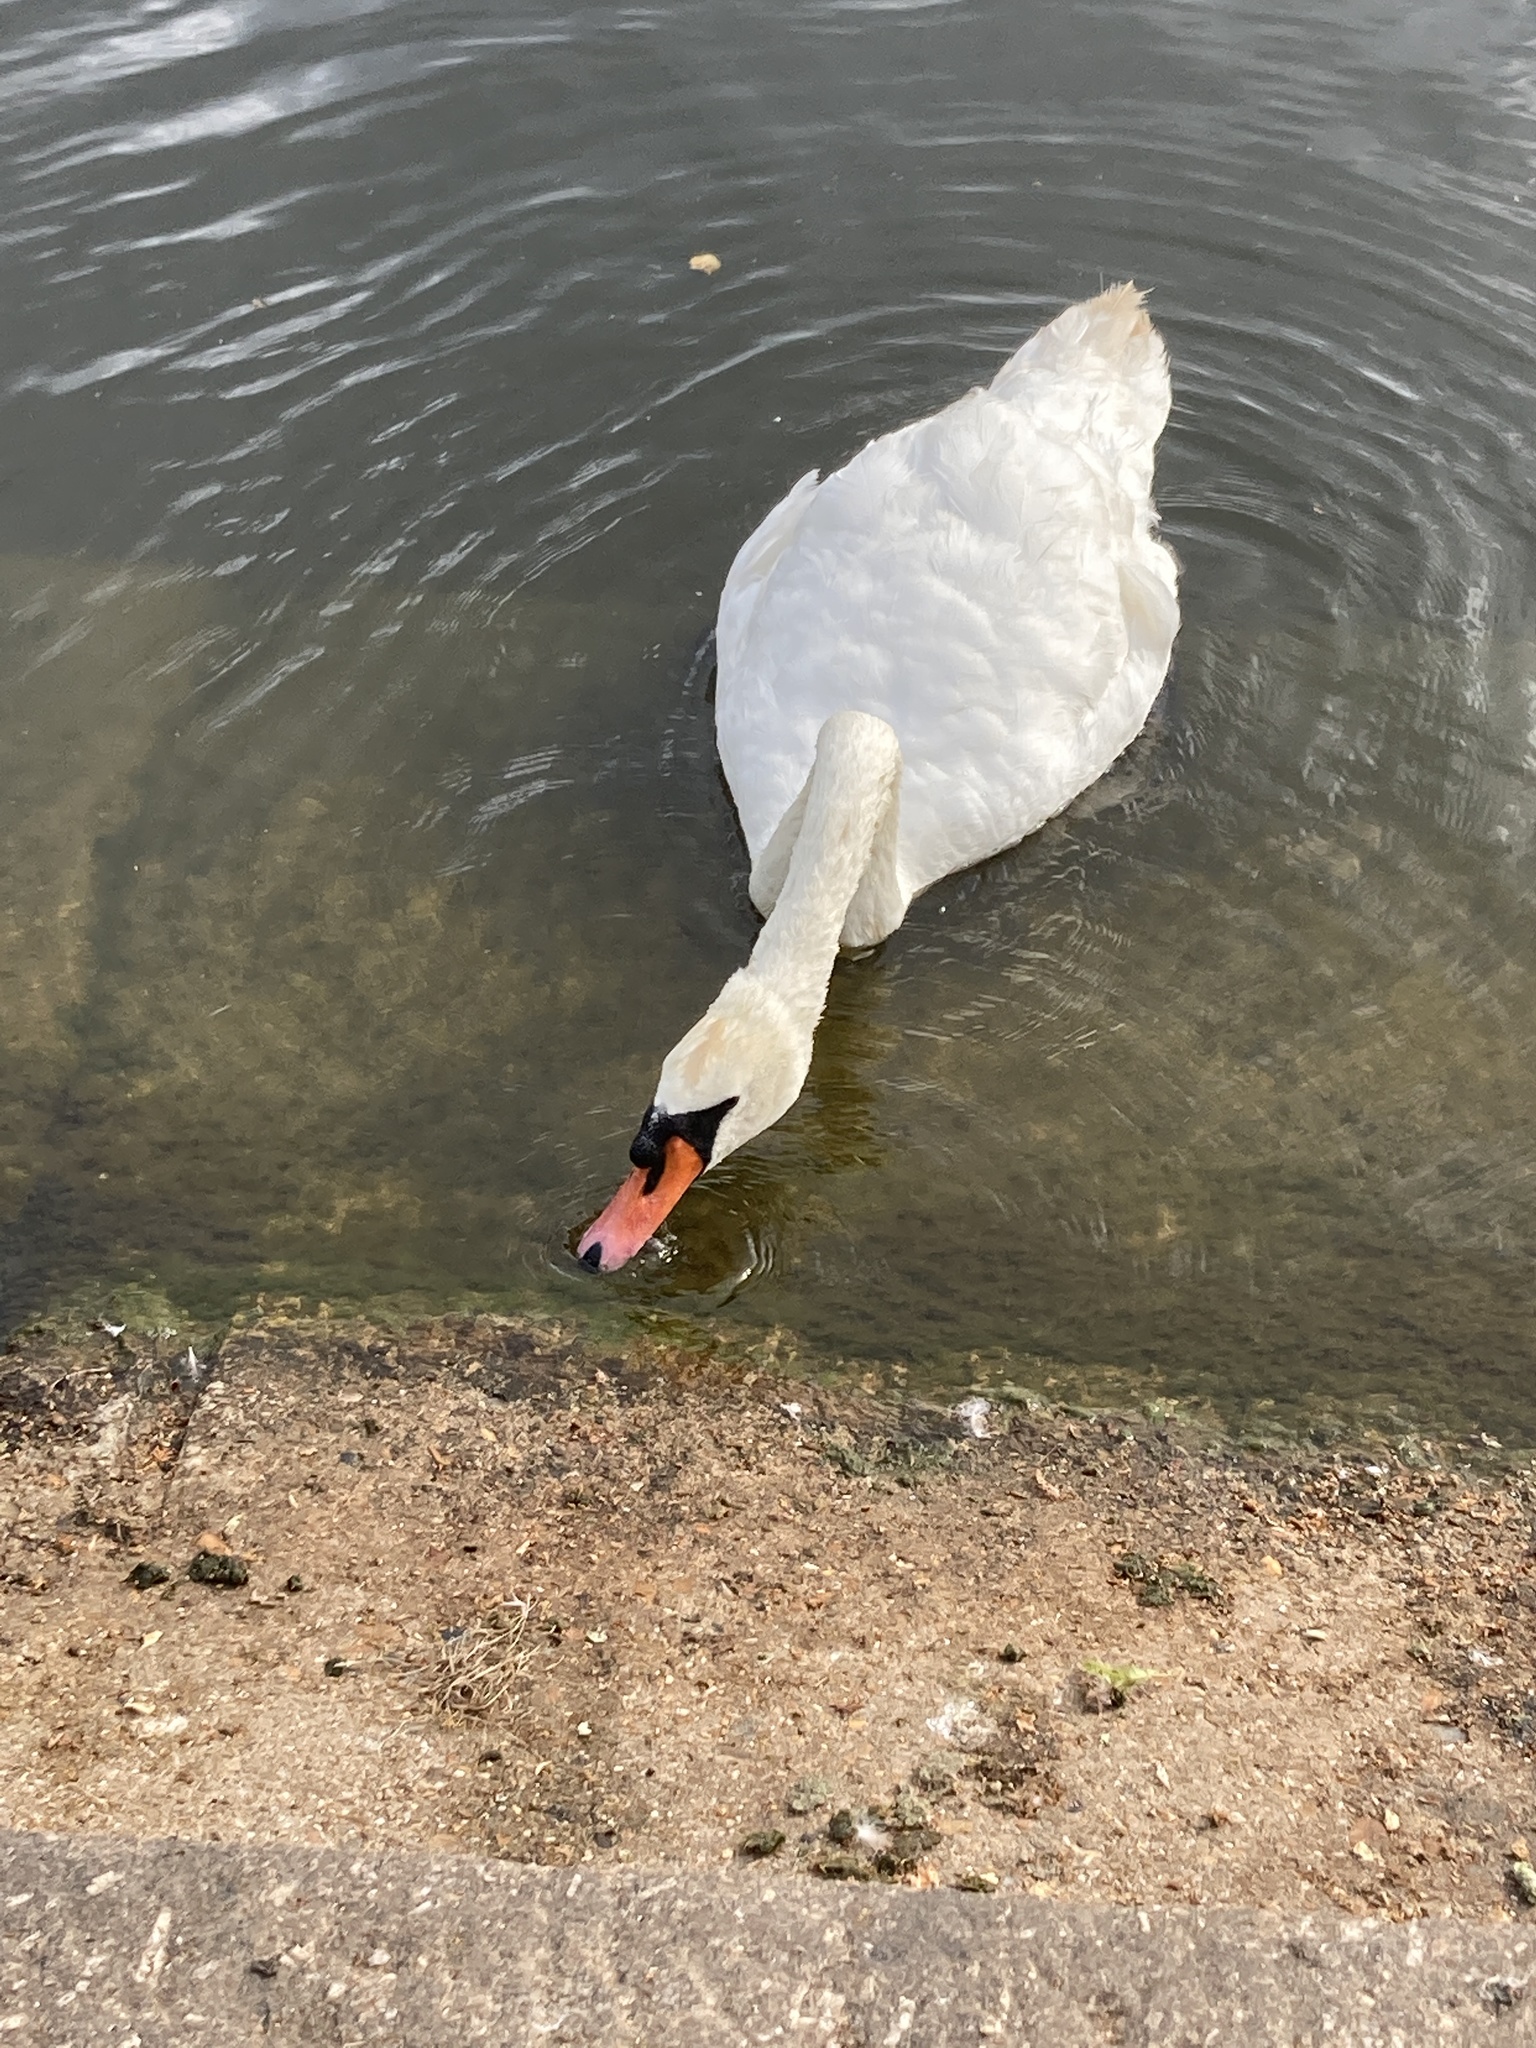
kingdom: Animalia
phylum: Chordata
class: Aves
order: Anseriformes
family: Anatidae
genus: Cygnus
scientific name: Cygnus olor
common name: Mute swan
